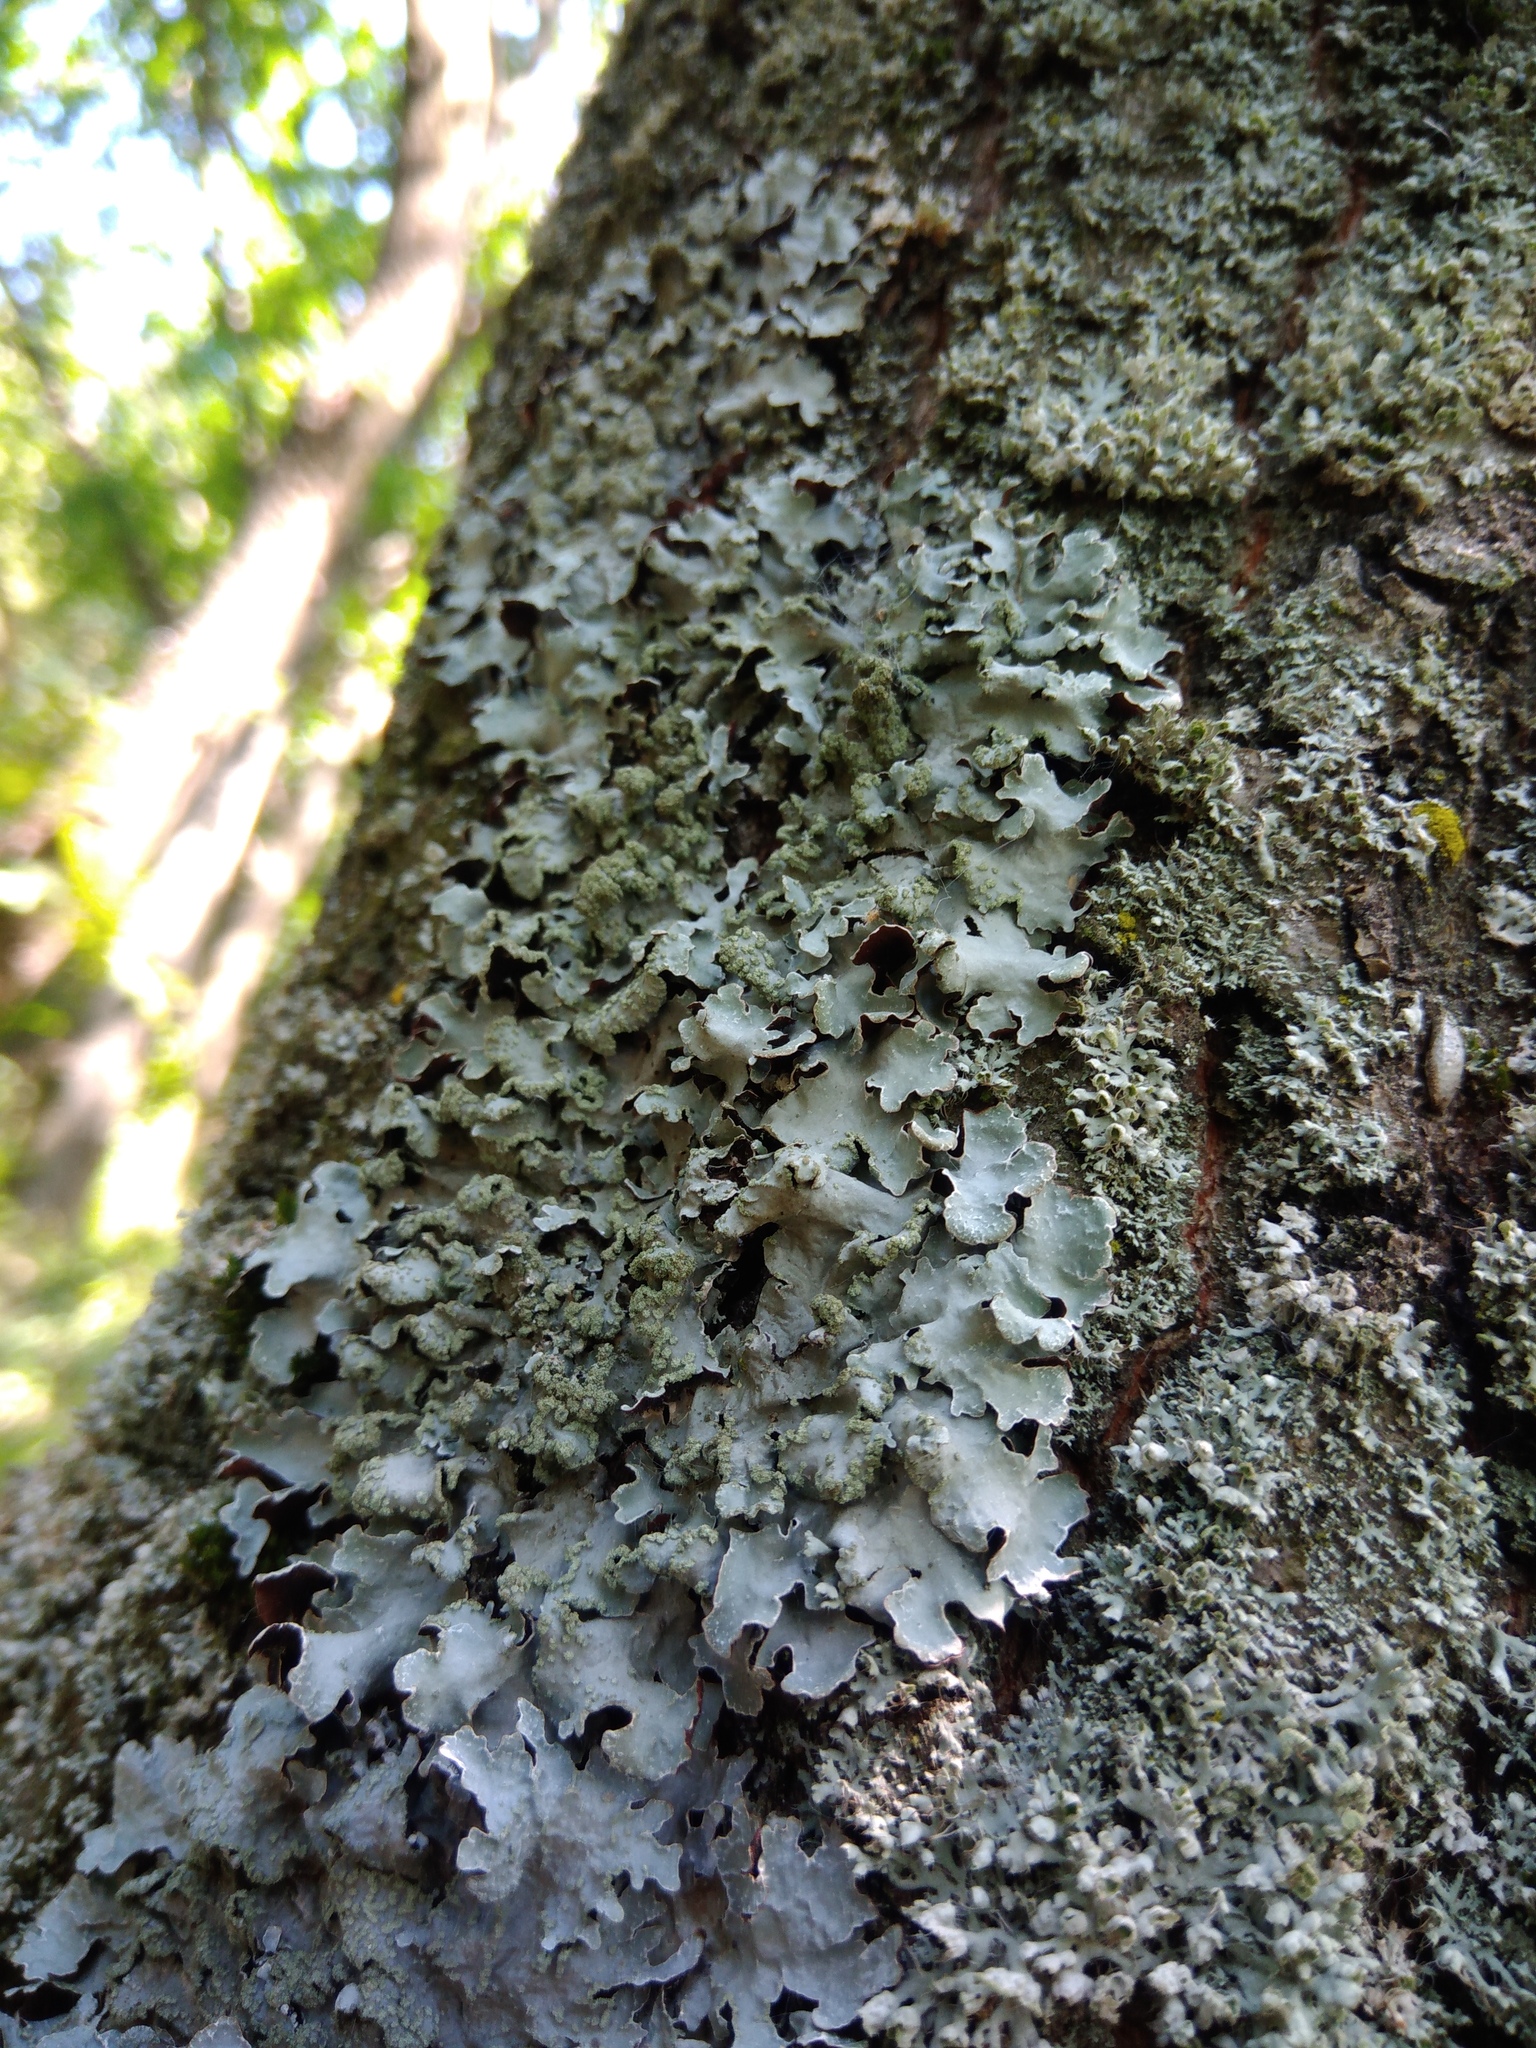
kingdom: Fungi
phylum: Ascomycota
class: Lecanoromycetes
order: Lecanorales
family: Parmeliaceae
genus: Parmelia
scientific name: Parmelia sulcata
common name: Netted shield lichen
